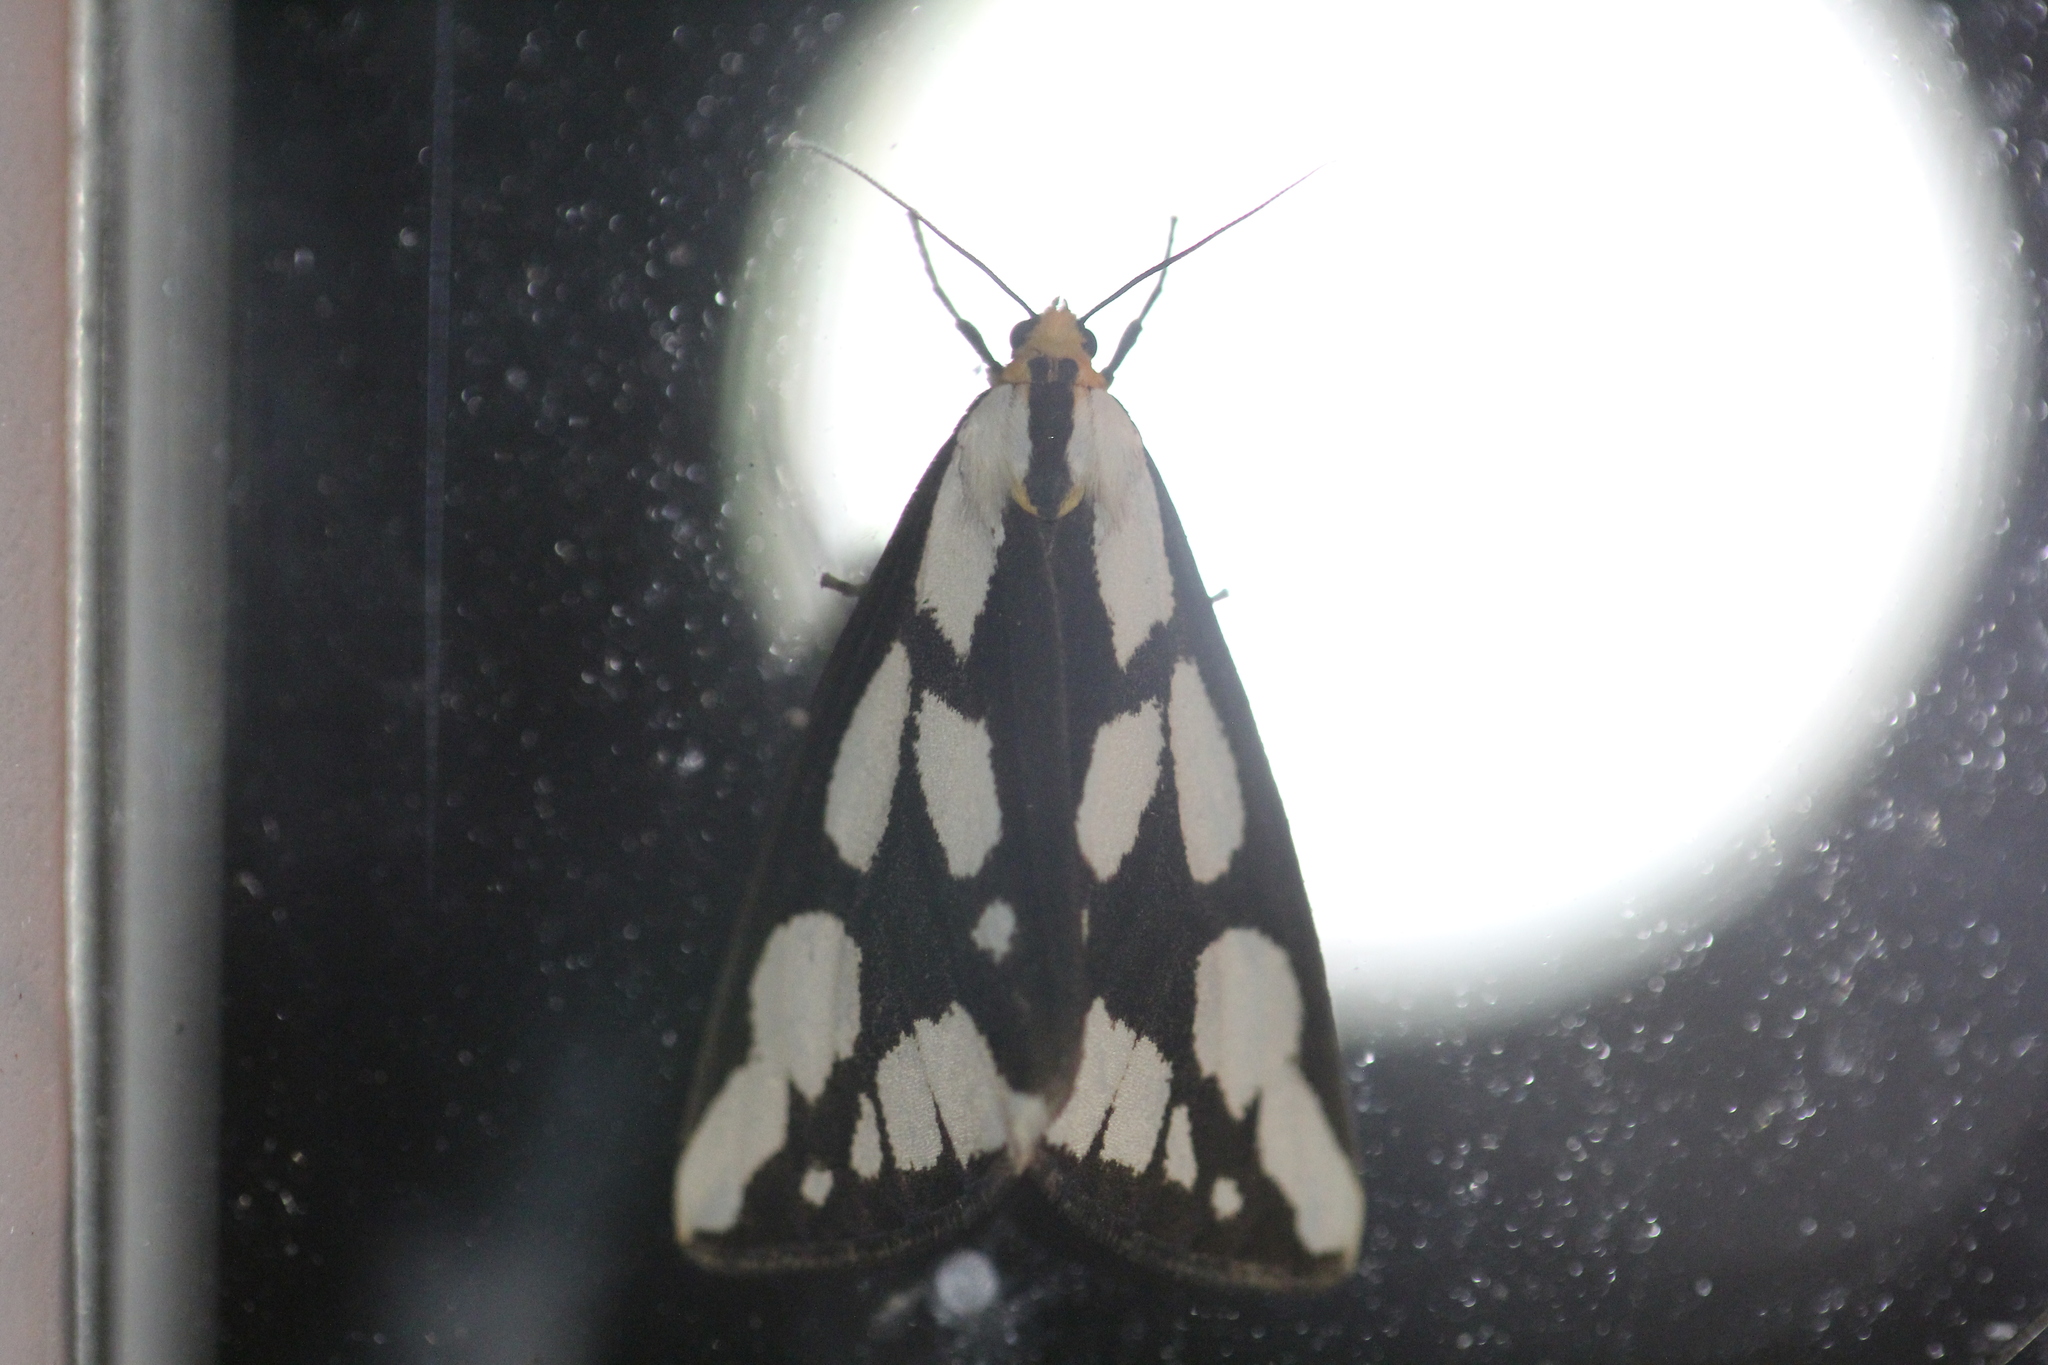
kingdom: Animalia
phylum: Arthropoda
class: Insecta
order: Lepidoptera
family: Erebidae
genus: Haploa
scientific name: Haploa confusa
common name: Confused haploa moth
